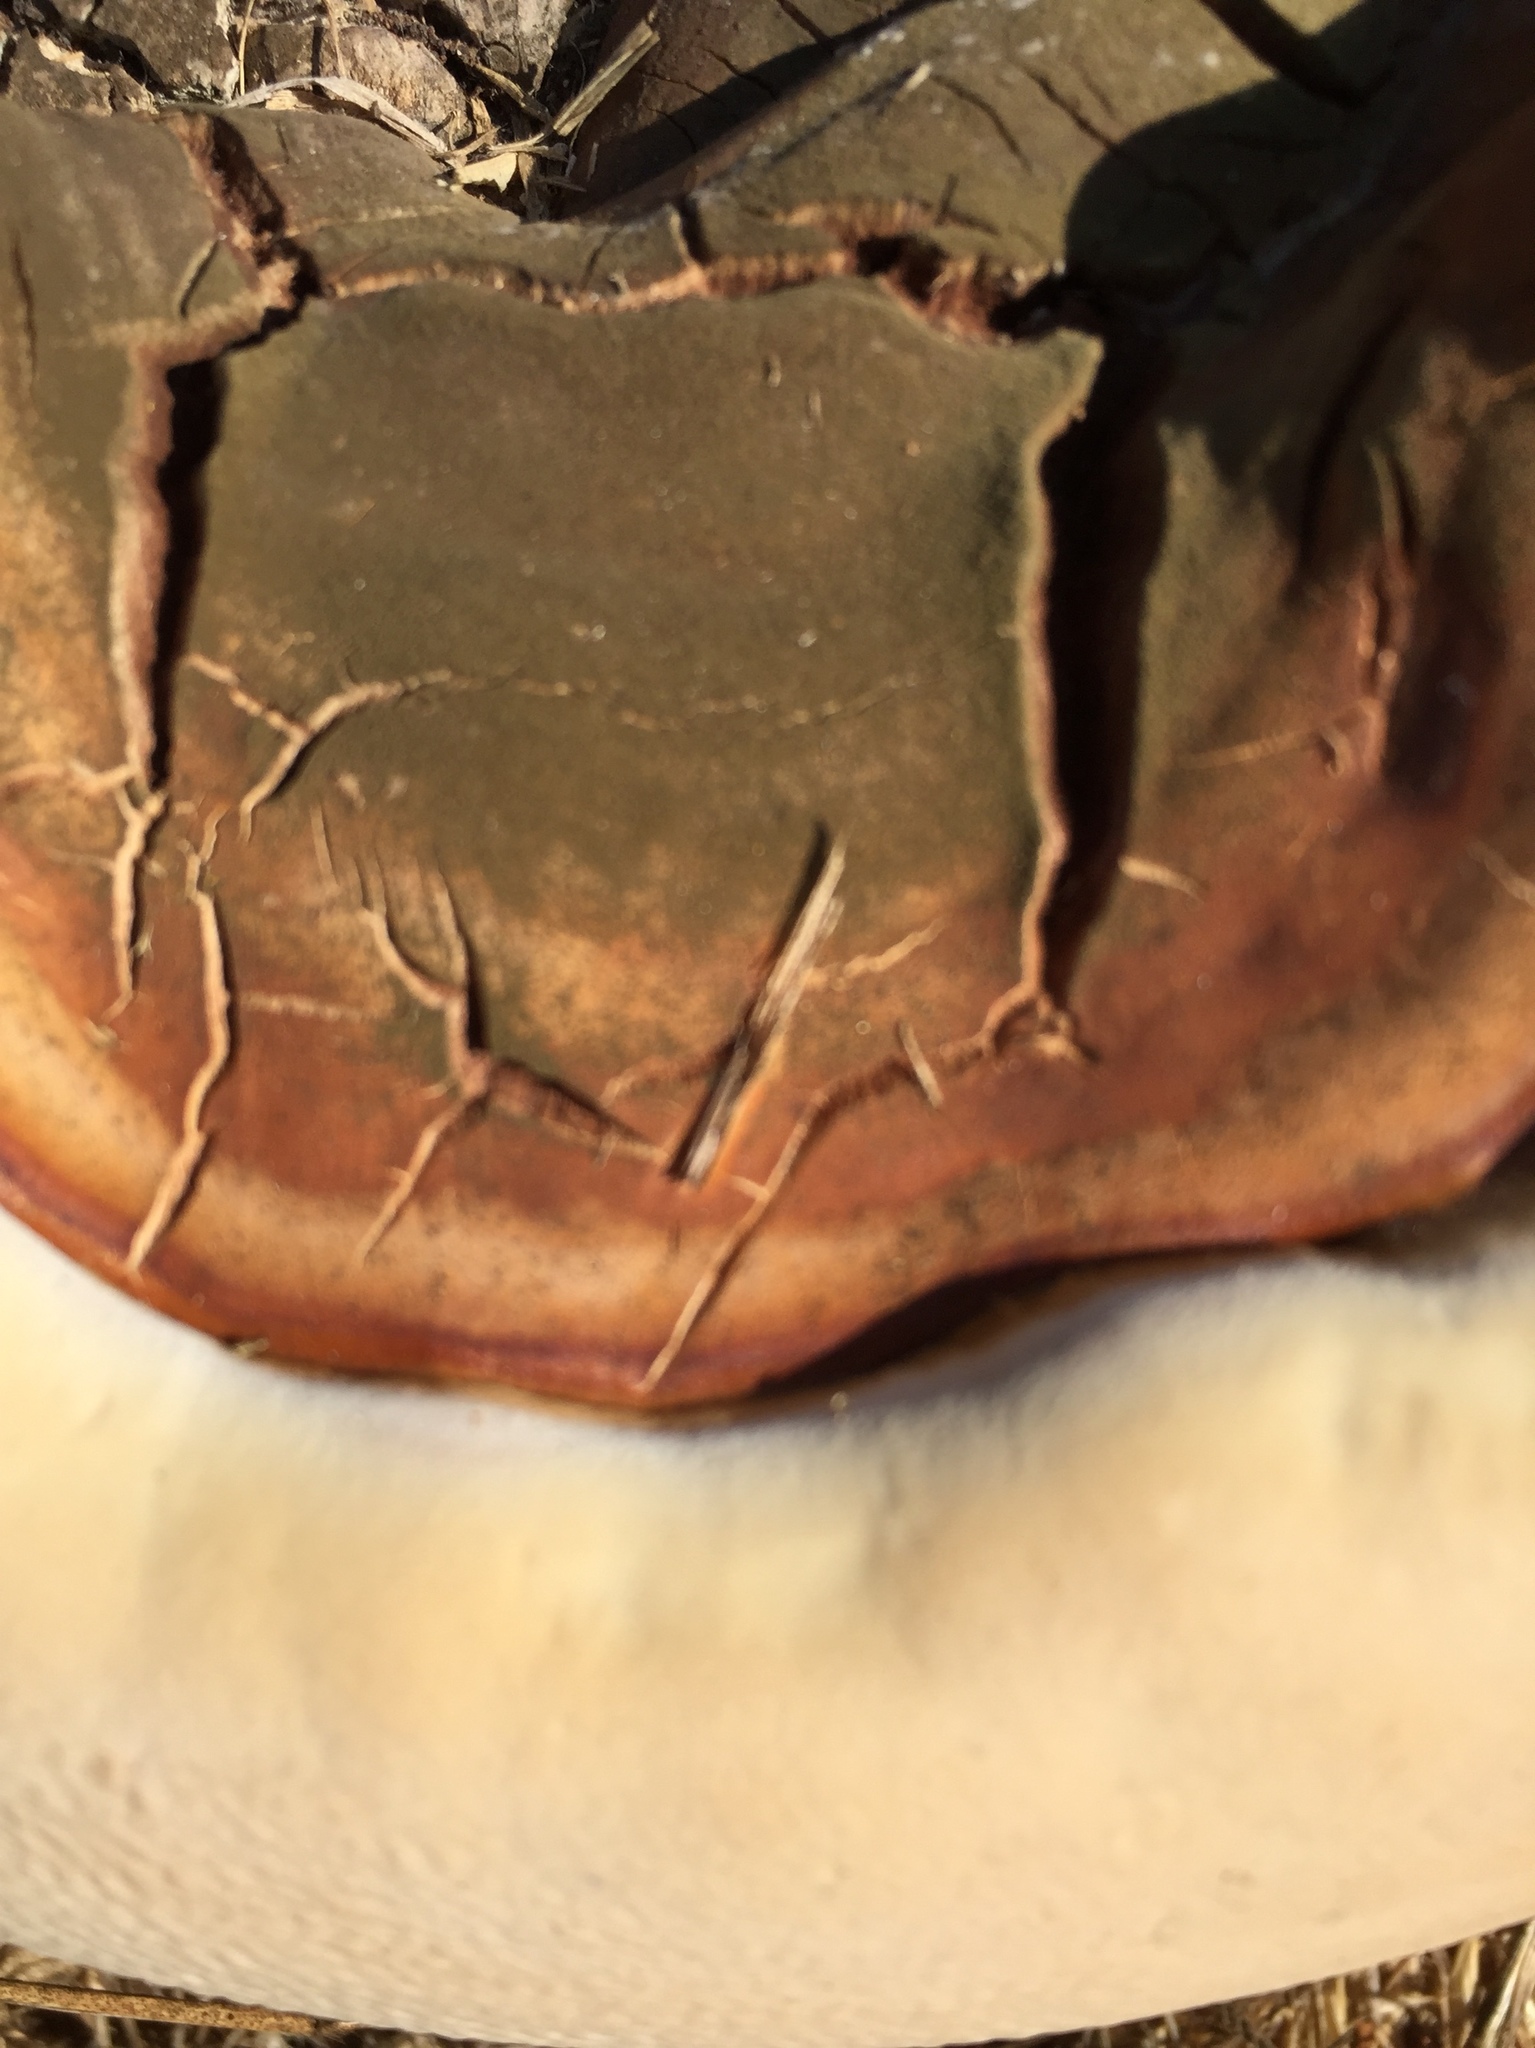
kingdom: Fungi
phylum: Basidiomycota
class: Agaricomycetes
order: Polyporales
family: Polyporaceae
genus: Ganoderma
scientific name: Ganoderma polychromum
